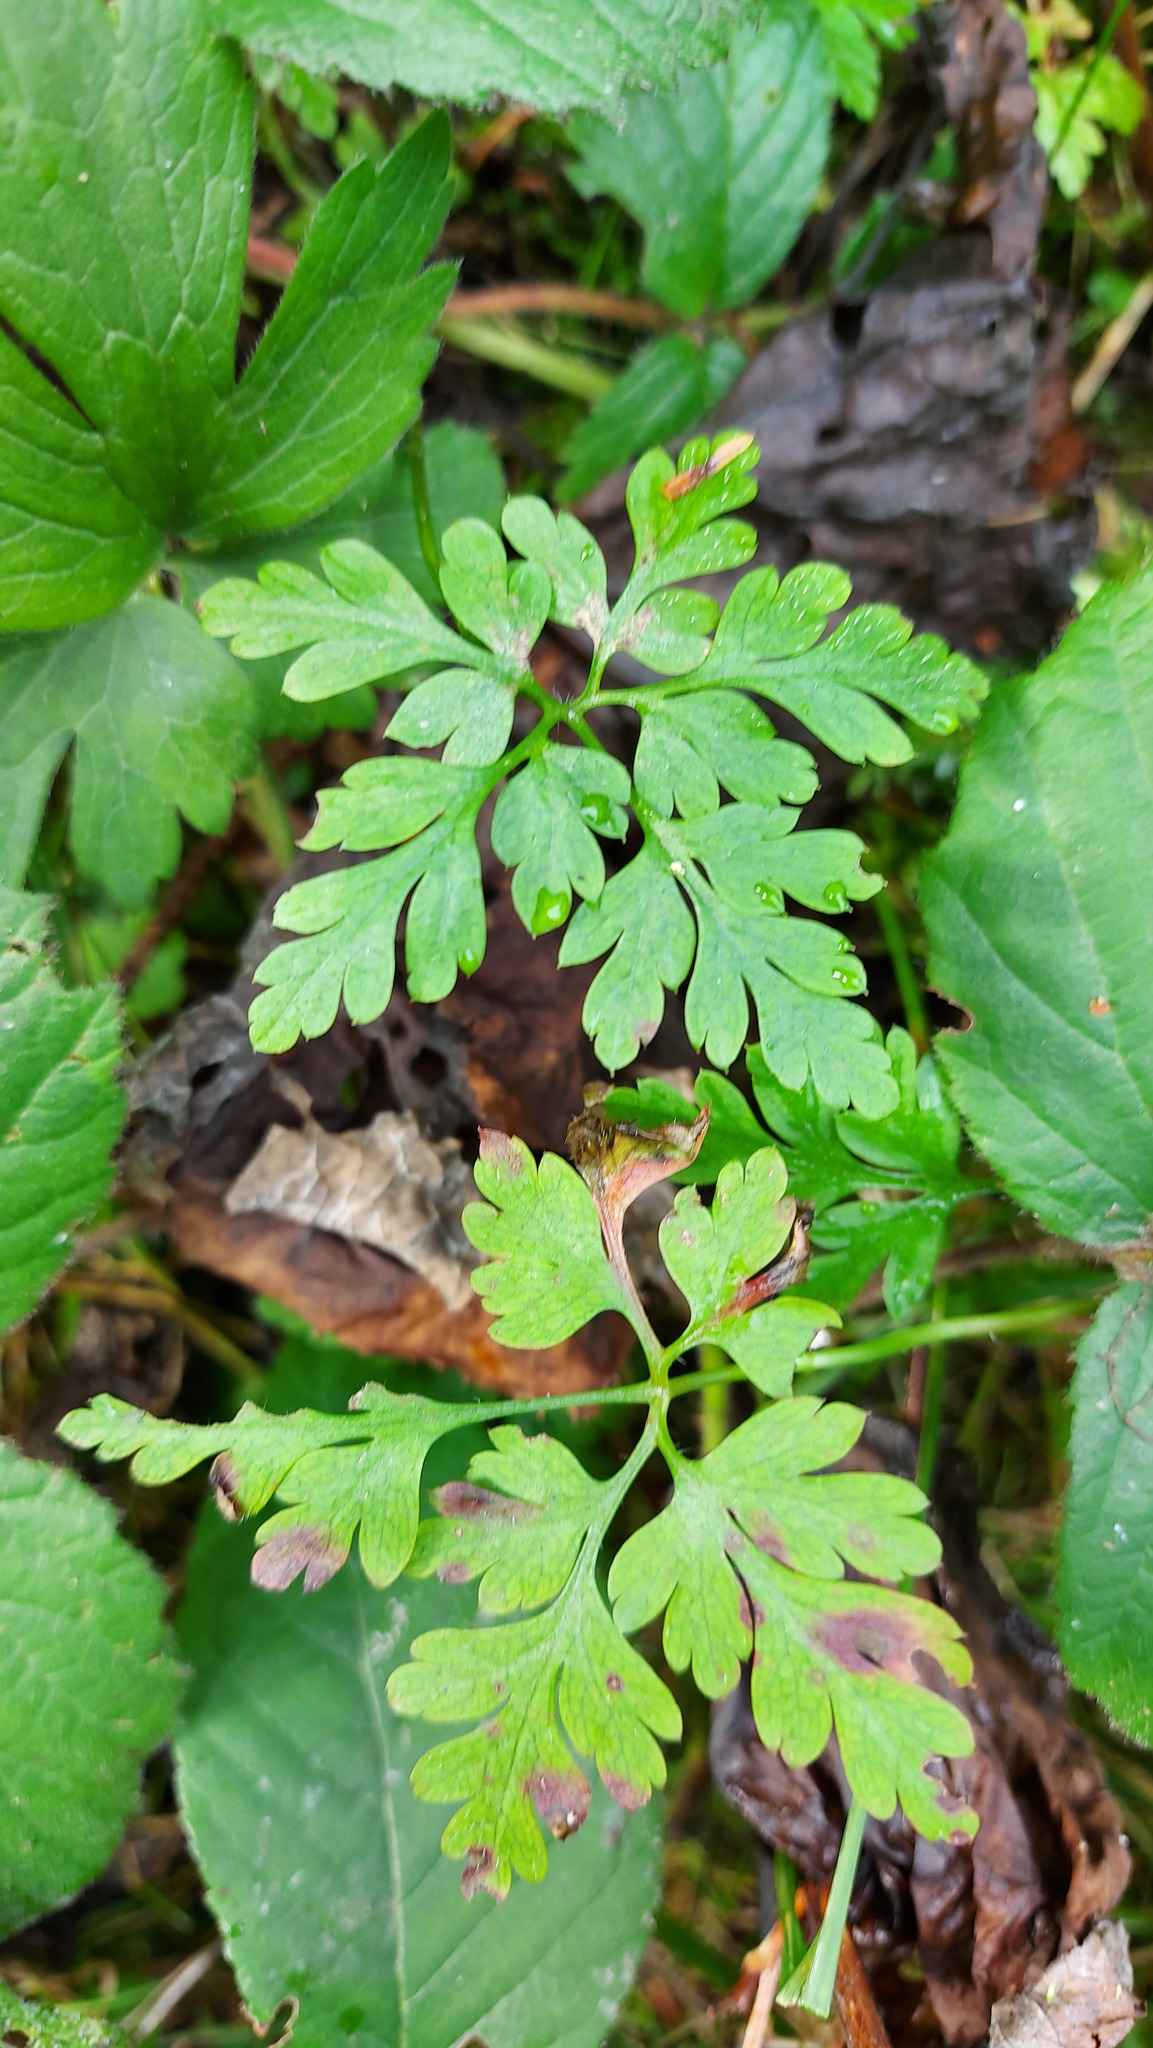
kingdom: Plantae
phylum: Tracheophyta
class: Magnoliopsida
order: Geraniales
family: Geraniaceae
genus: Geranium
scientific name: Geranium robertianum
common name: Herb-robert
